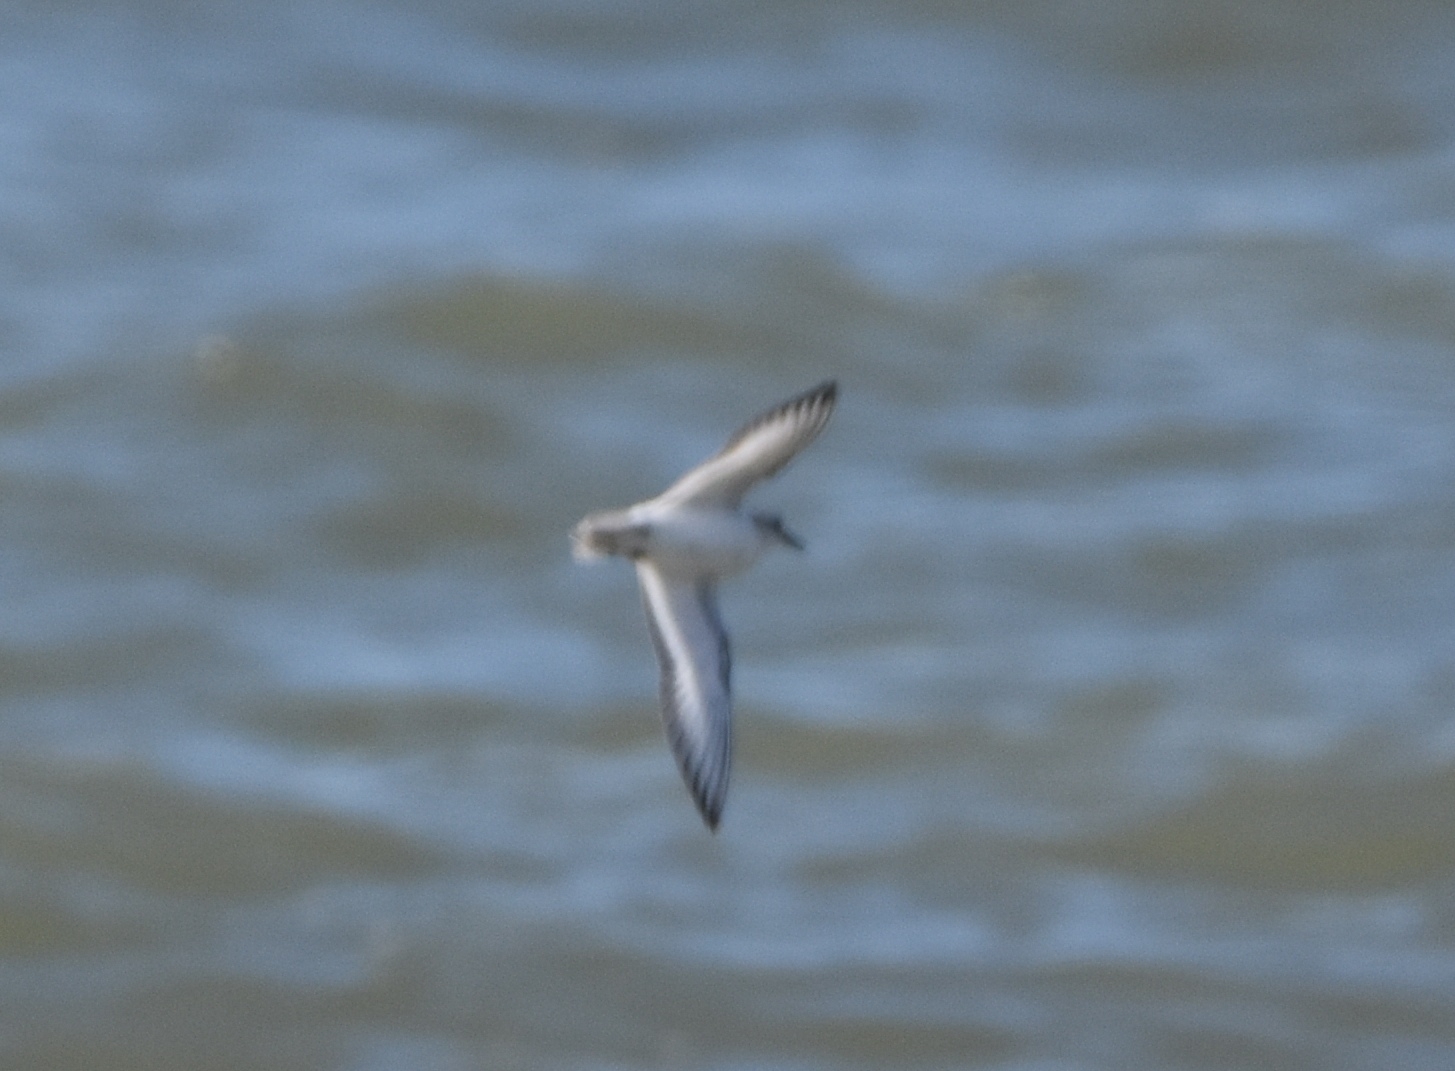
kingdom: Animalia
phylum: Chordata
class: Aves
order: Charadriiformes
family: Scolopacidae
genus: Calidris
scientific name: Calidris alba
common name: Sanderling
